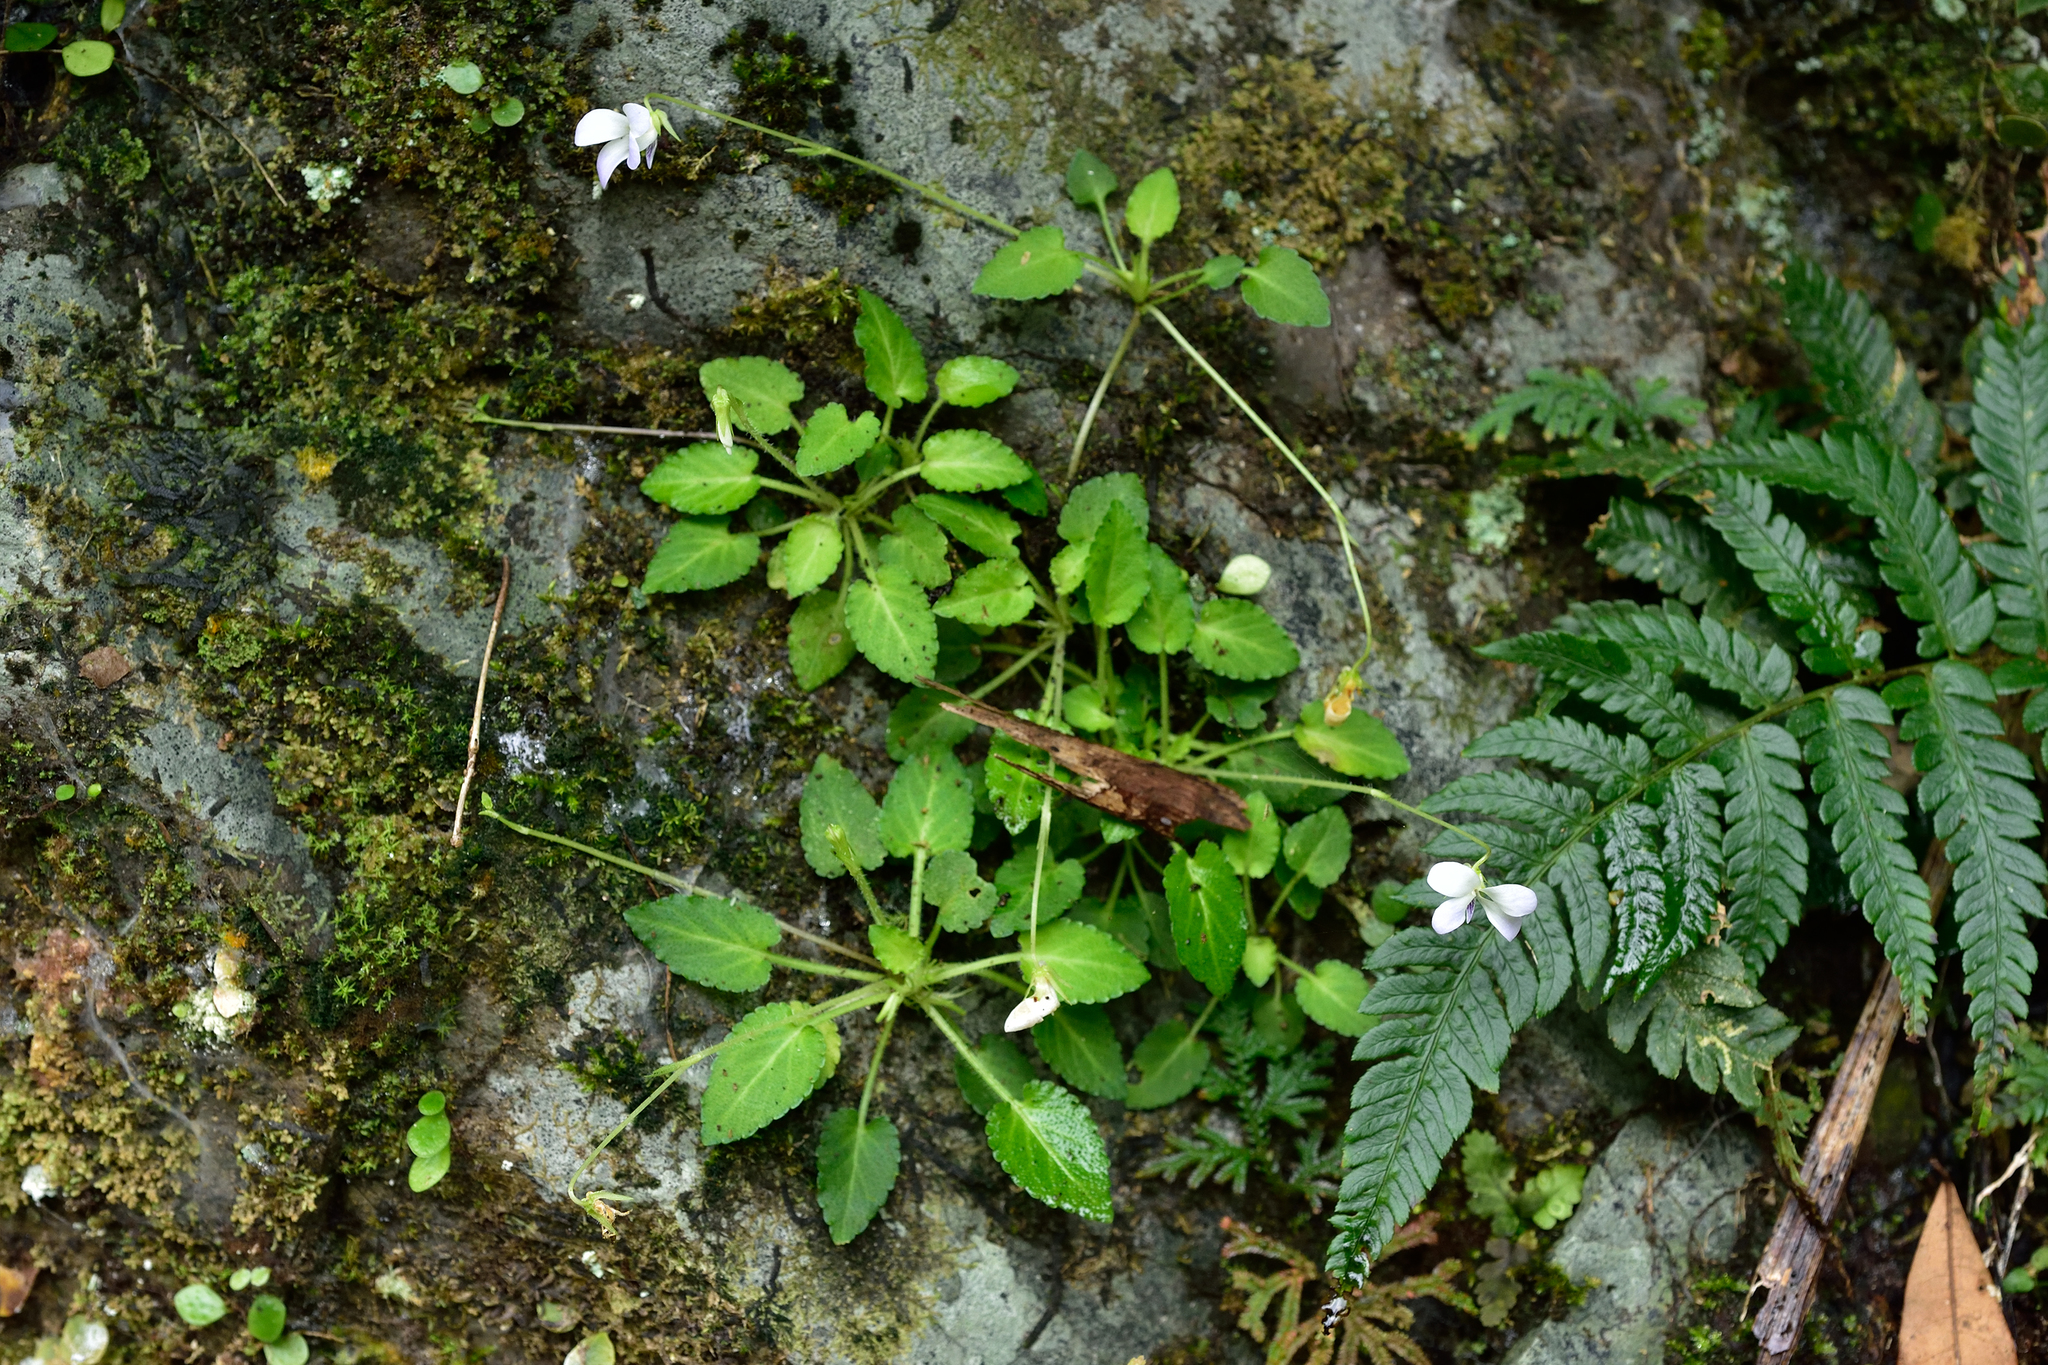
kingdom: Plantae
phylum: Tracheophyta
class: Magnoliopsida
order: Malpighiales
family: Violaceae
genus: Viola
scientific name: Viola nagasawae
